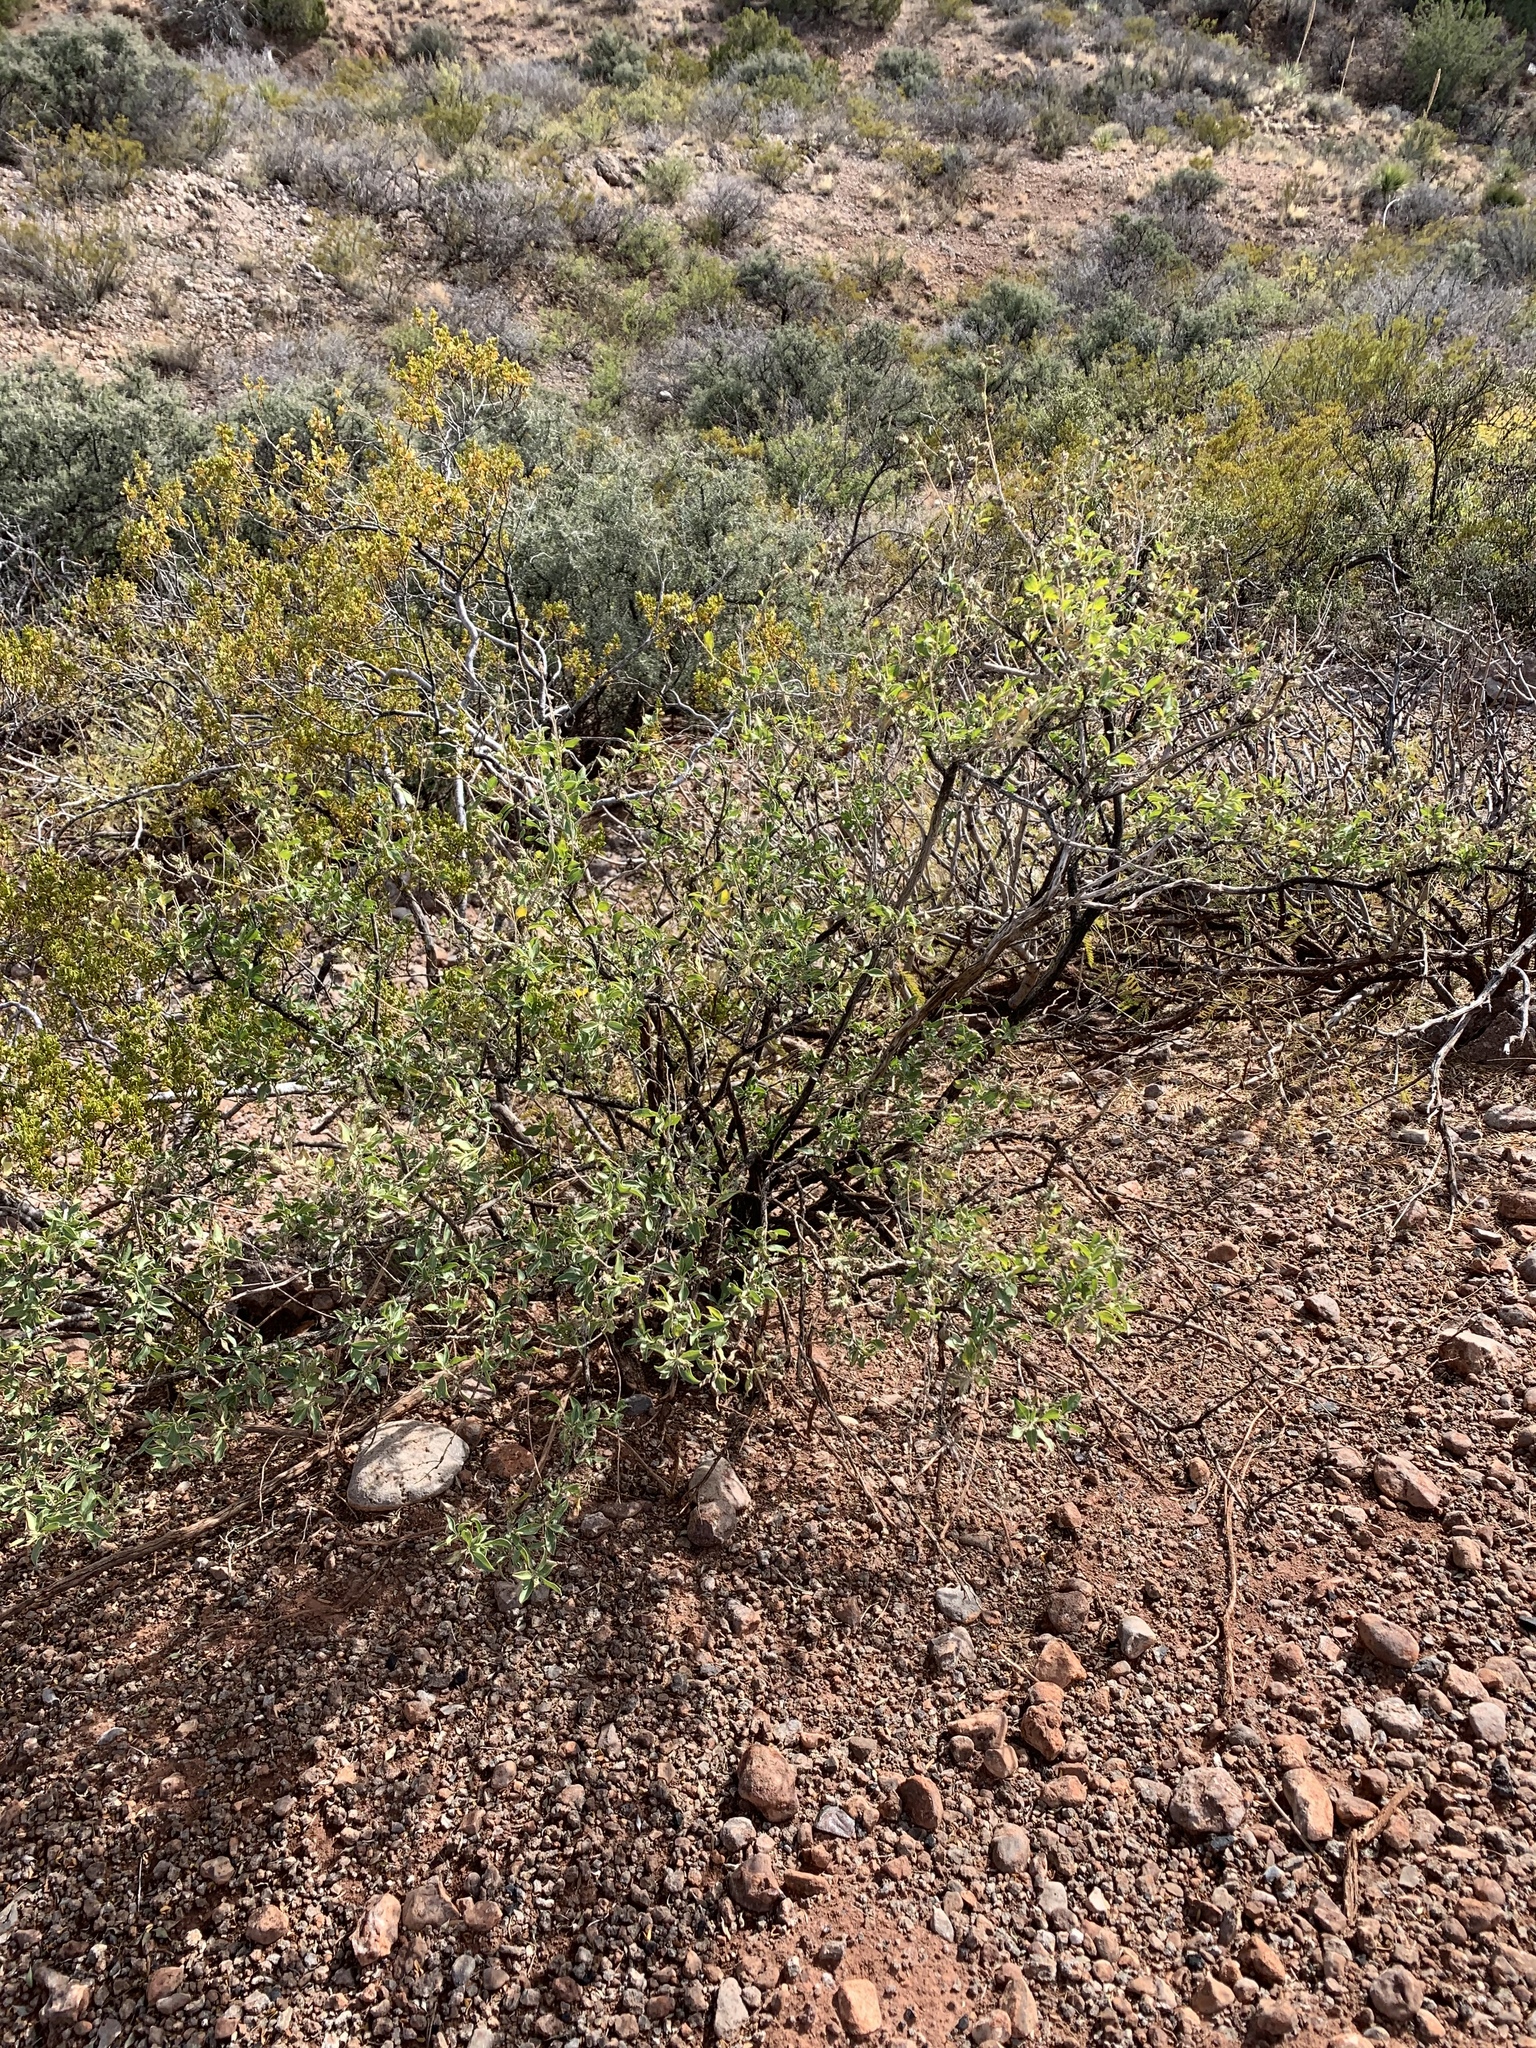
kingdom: Plantae
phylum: Tracheophyta
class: Magnoliopsida
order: Asterales
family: Asteraceae
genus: Flourensia
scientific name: Flourensia cernua
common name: Varnishbush
